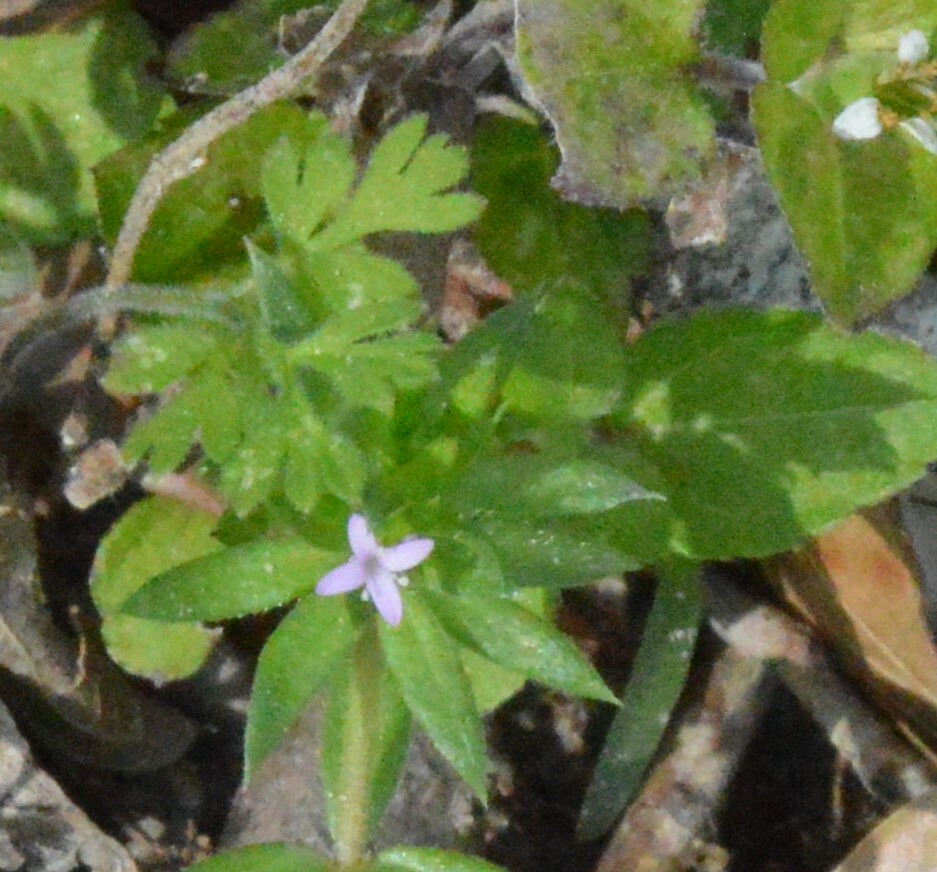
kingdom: Plantae
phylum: Tracheophyta
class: Magnoliopsida
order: Gentianales
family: Rubiaceae
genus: Sherardia
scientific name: Sherardia arvensis
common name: Field madder
